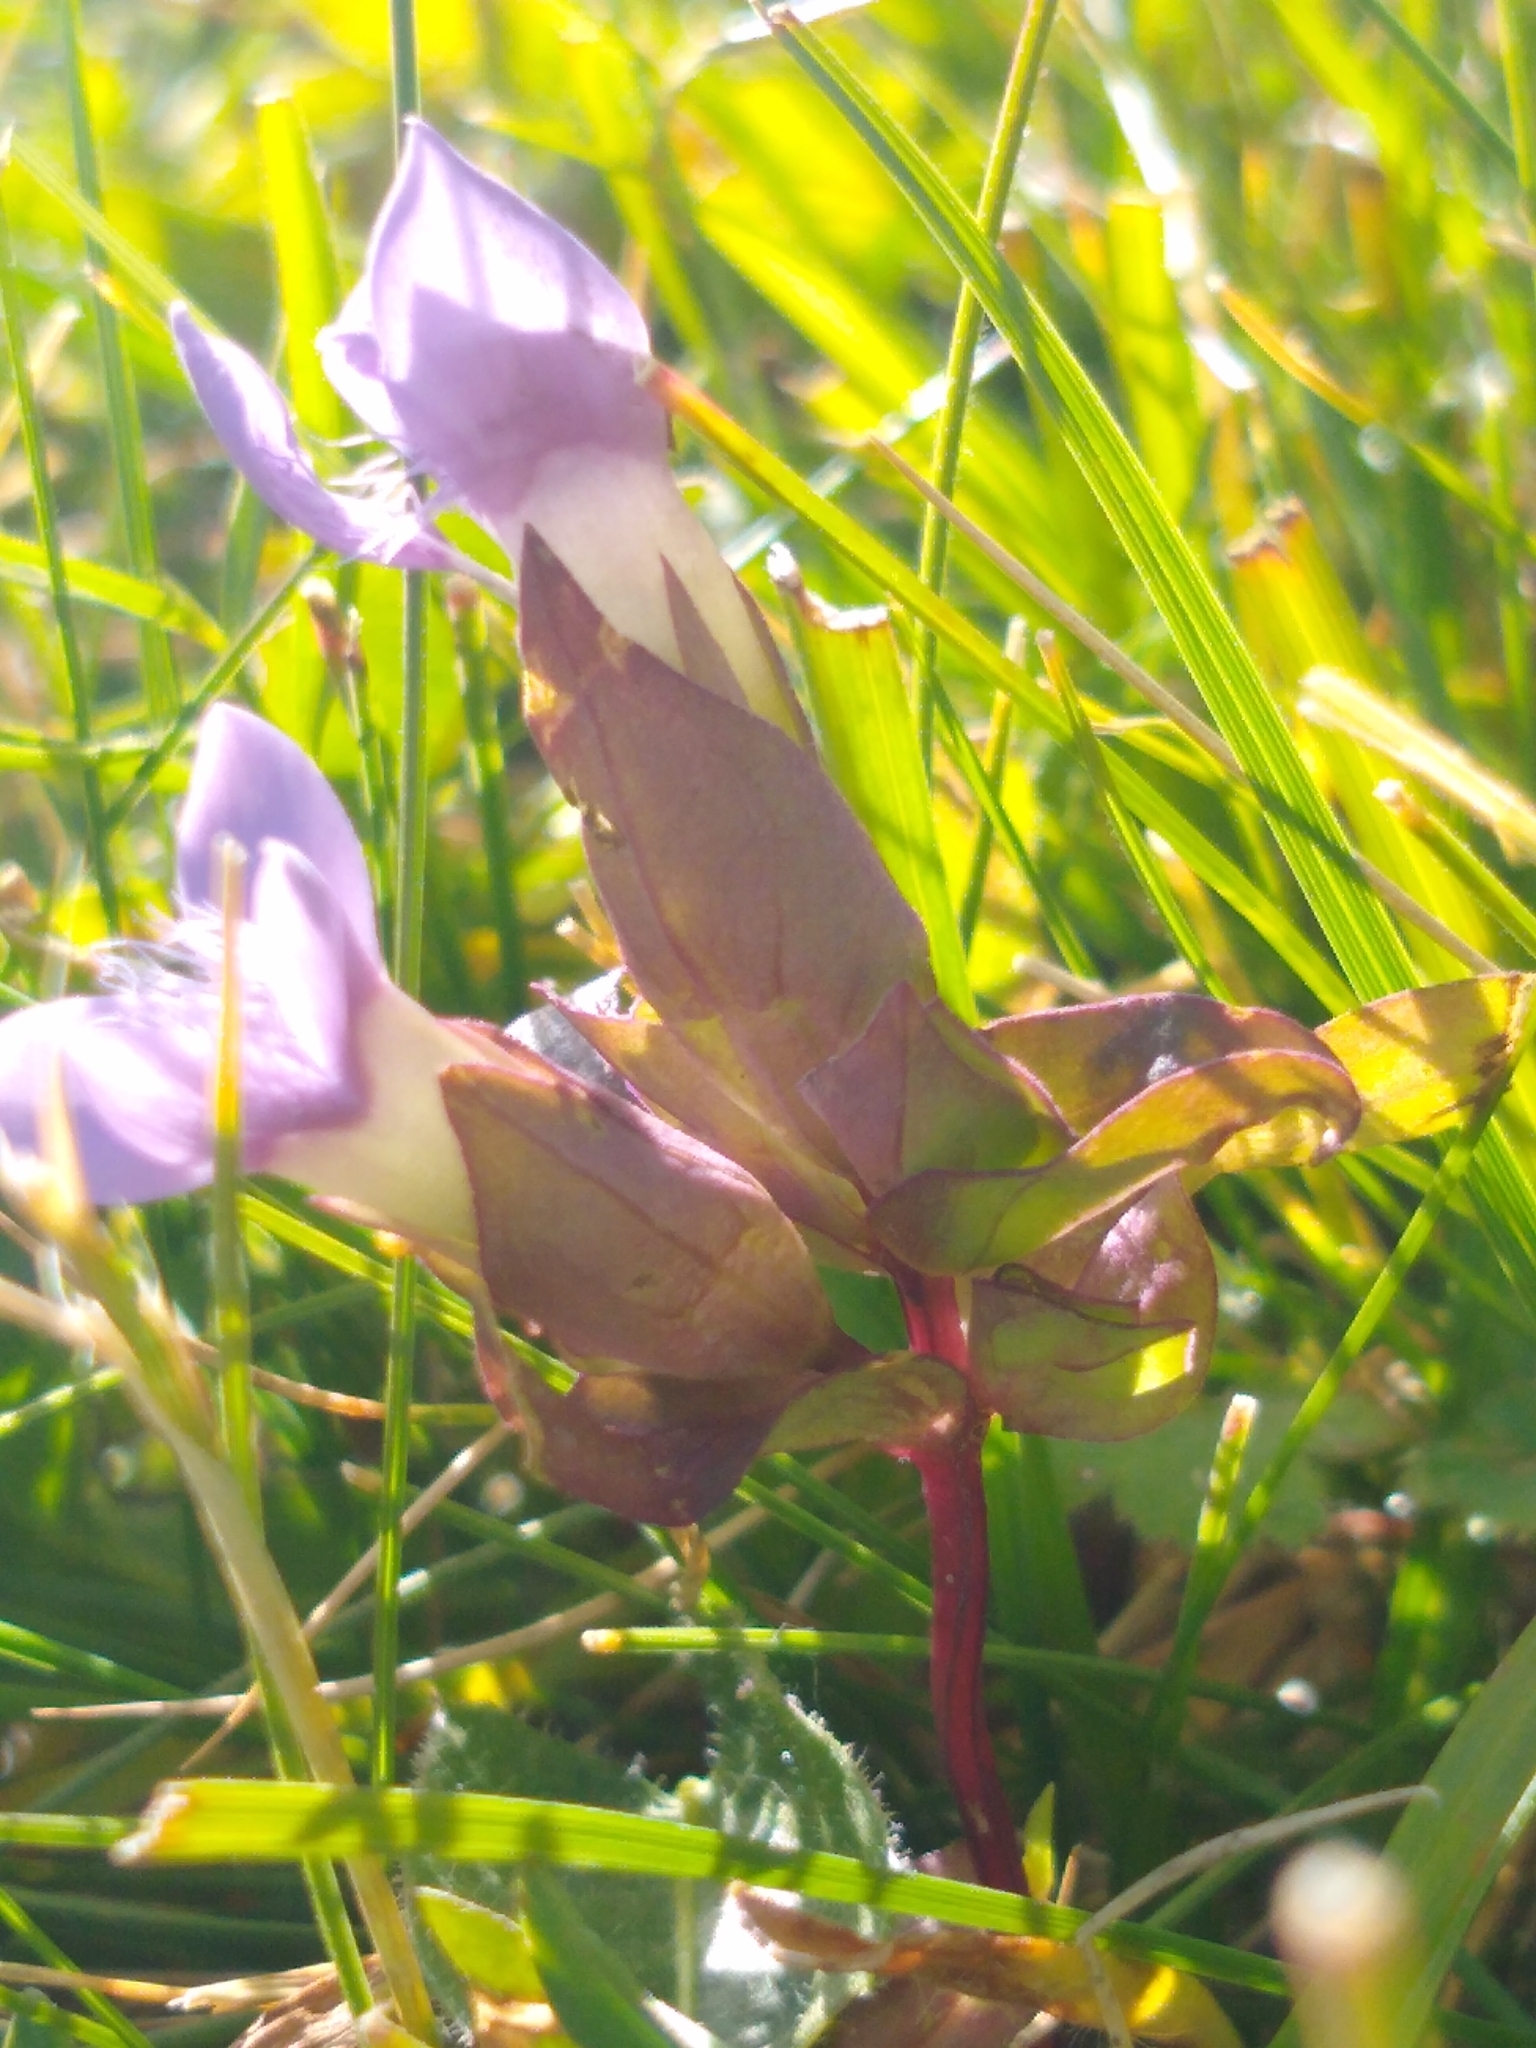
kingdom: Plantae
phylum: Tracheophyta
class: Magnoliopsida
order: Gentianales
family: Gentianaceae
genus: Gentianella
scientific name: Gentianella campestris
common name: Field gentian
